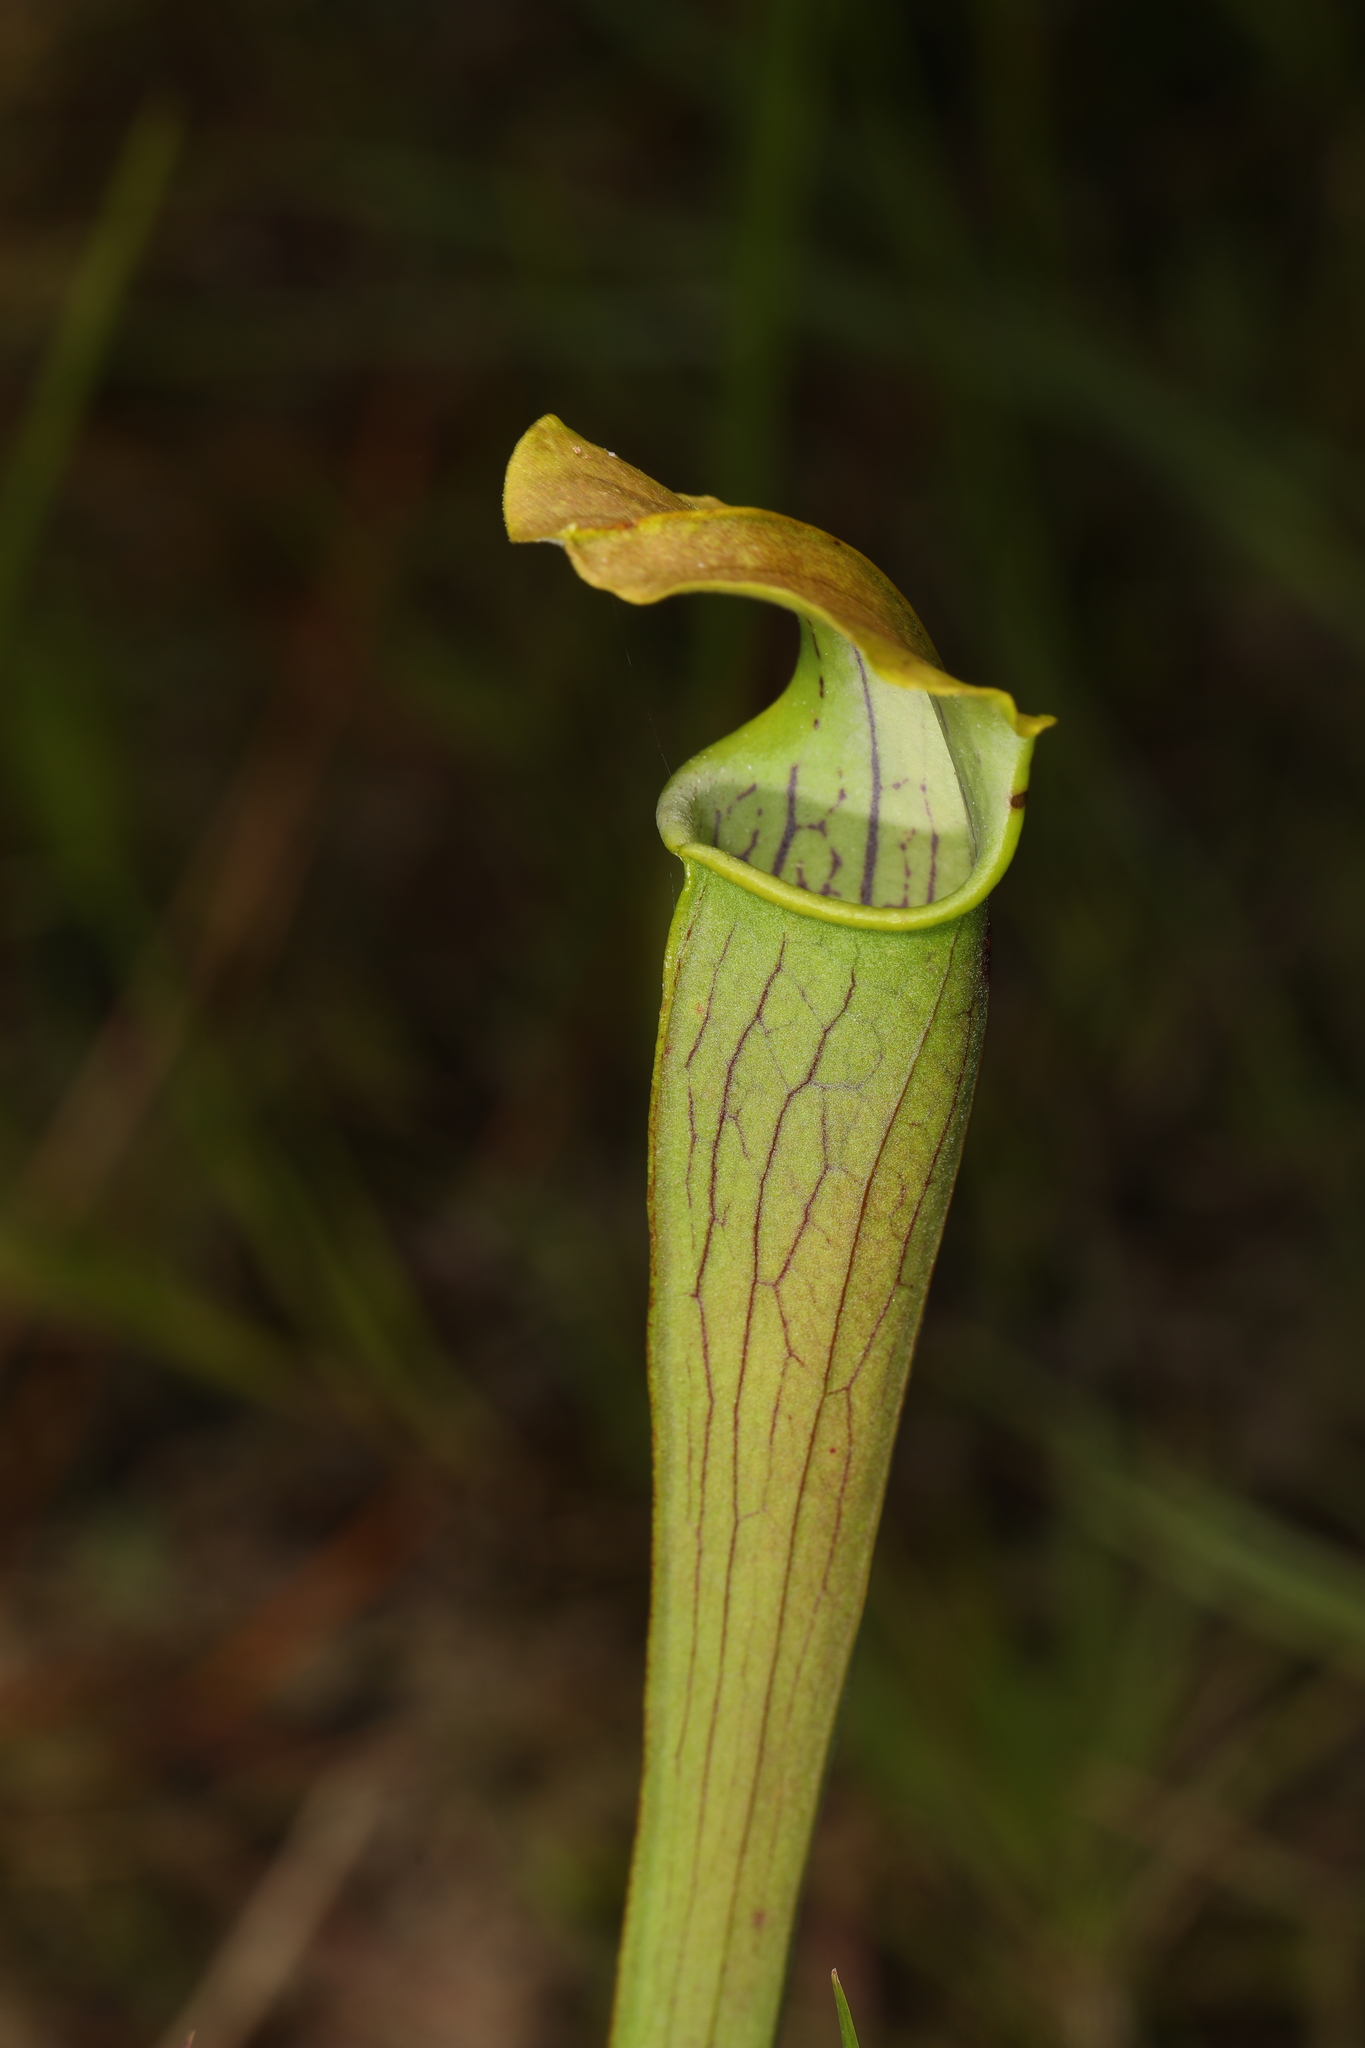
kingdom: Plantae
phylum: Tracheophyta
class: Magnoliopsida
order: Ericales
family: Sarraceniaceae
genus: Sarracenia
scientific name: Sarracenia alata
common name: Yellow trumpets
